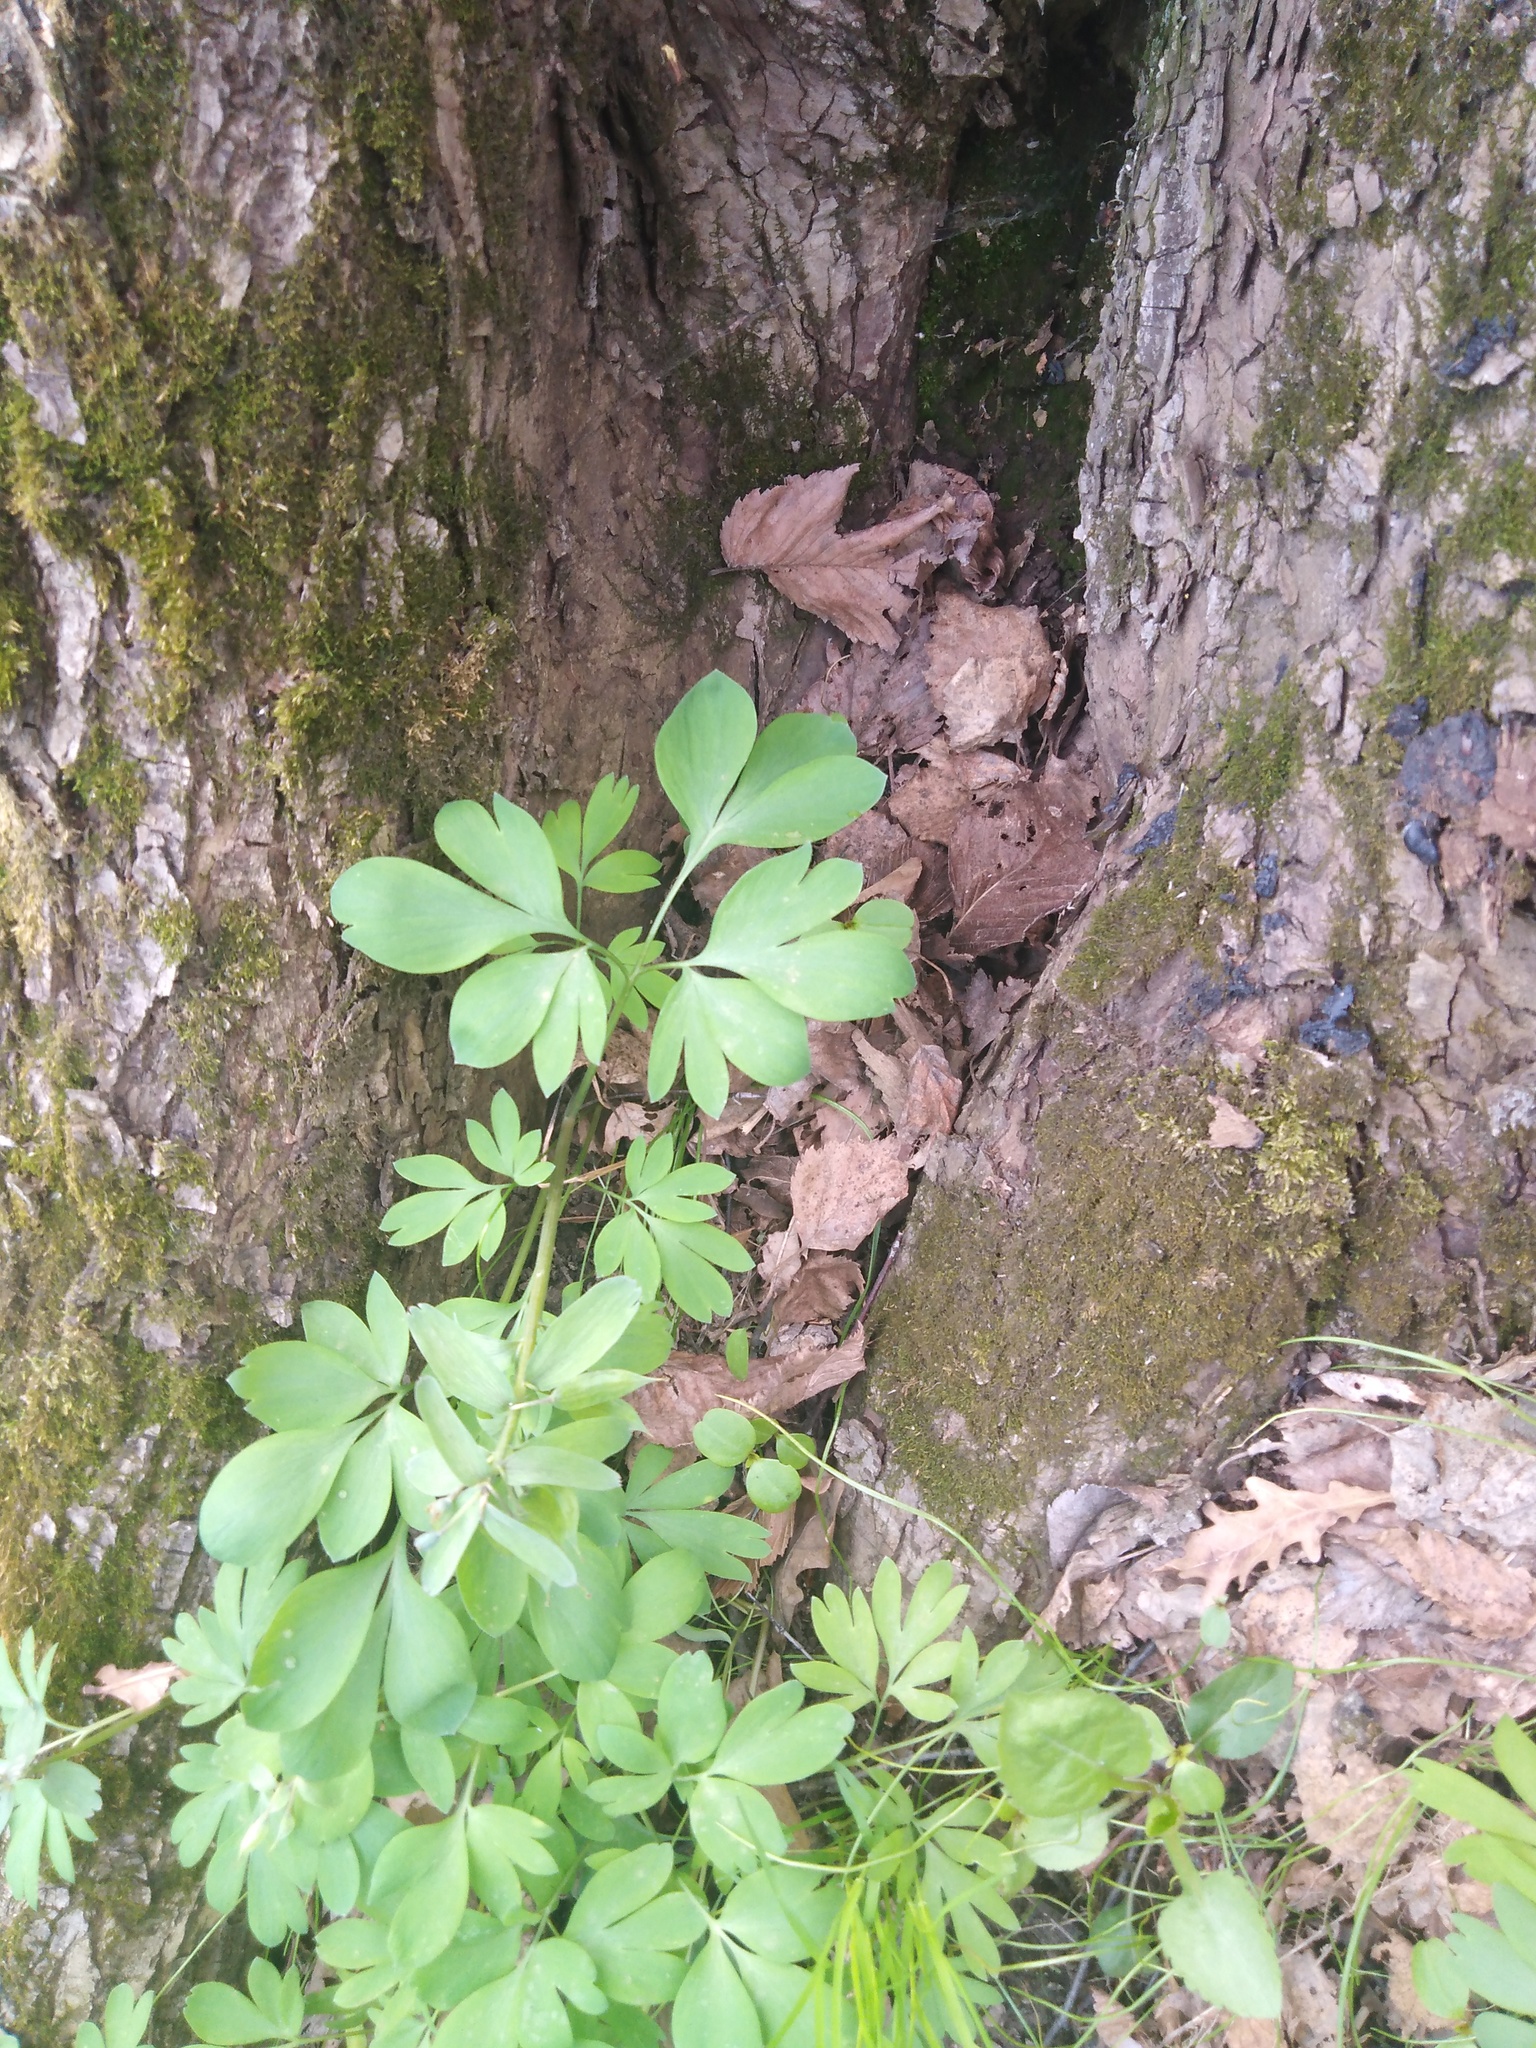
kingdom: Plantae
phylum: Tracheophyta
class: Magnoliopsida
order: Ranunculales
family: Papaveraceae
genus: Corydalis
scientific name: Corydalis solida
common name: Bird-in-a-bush
